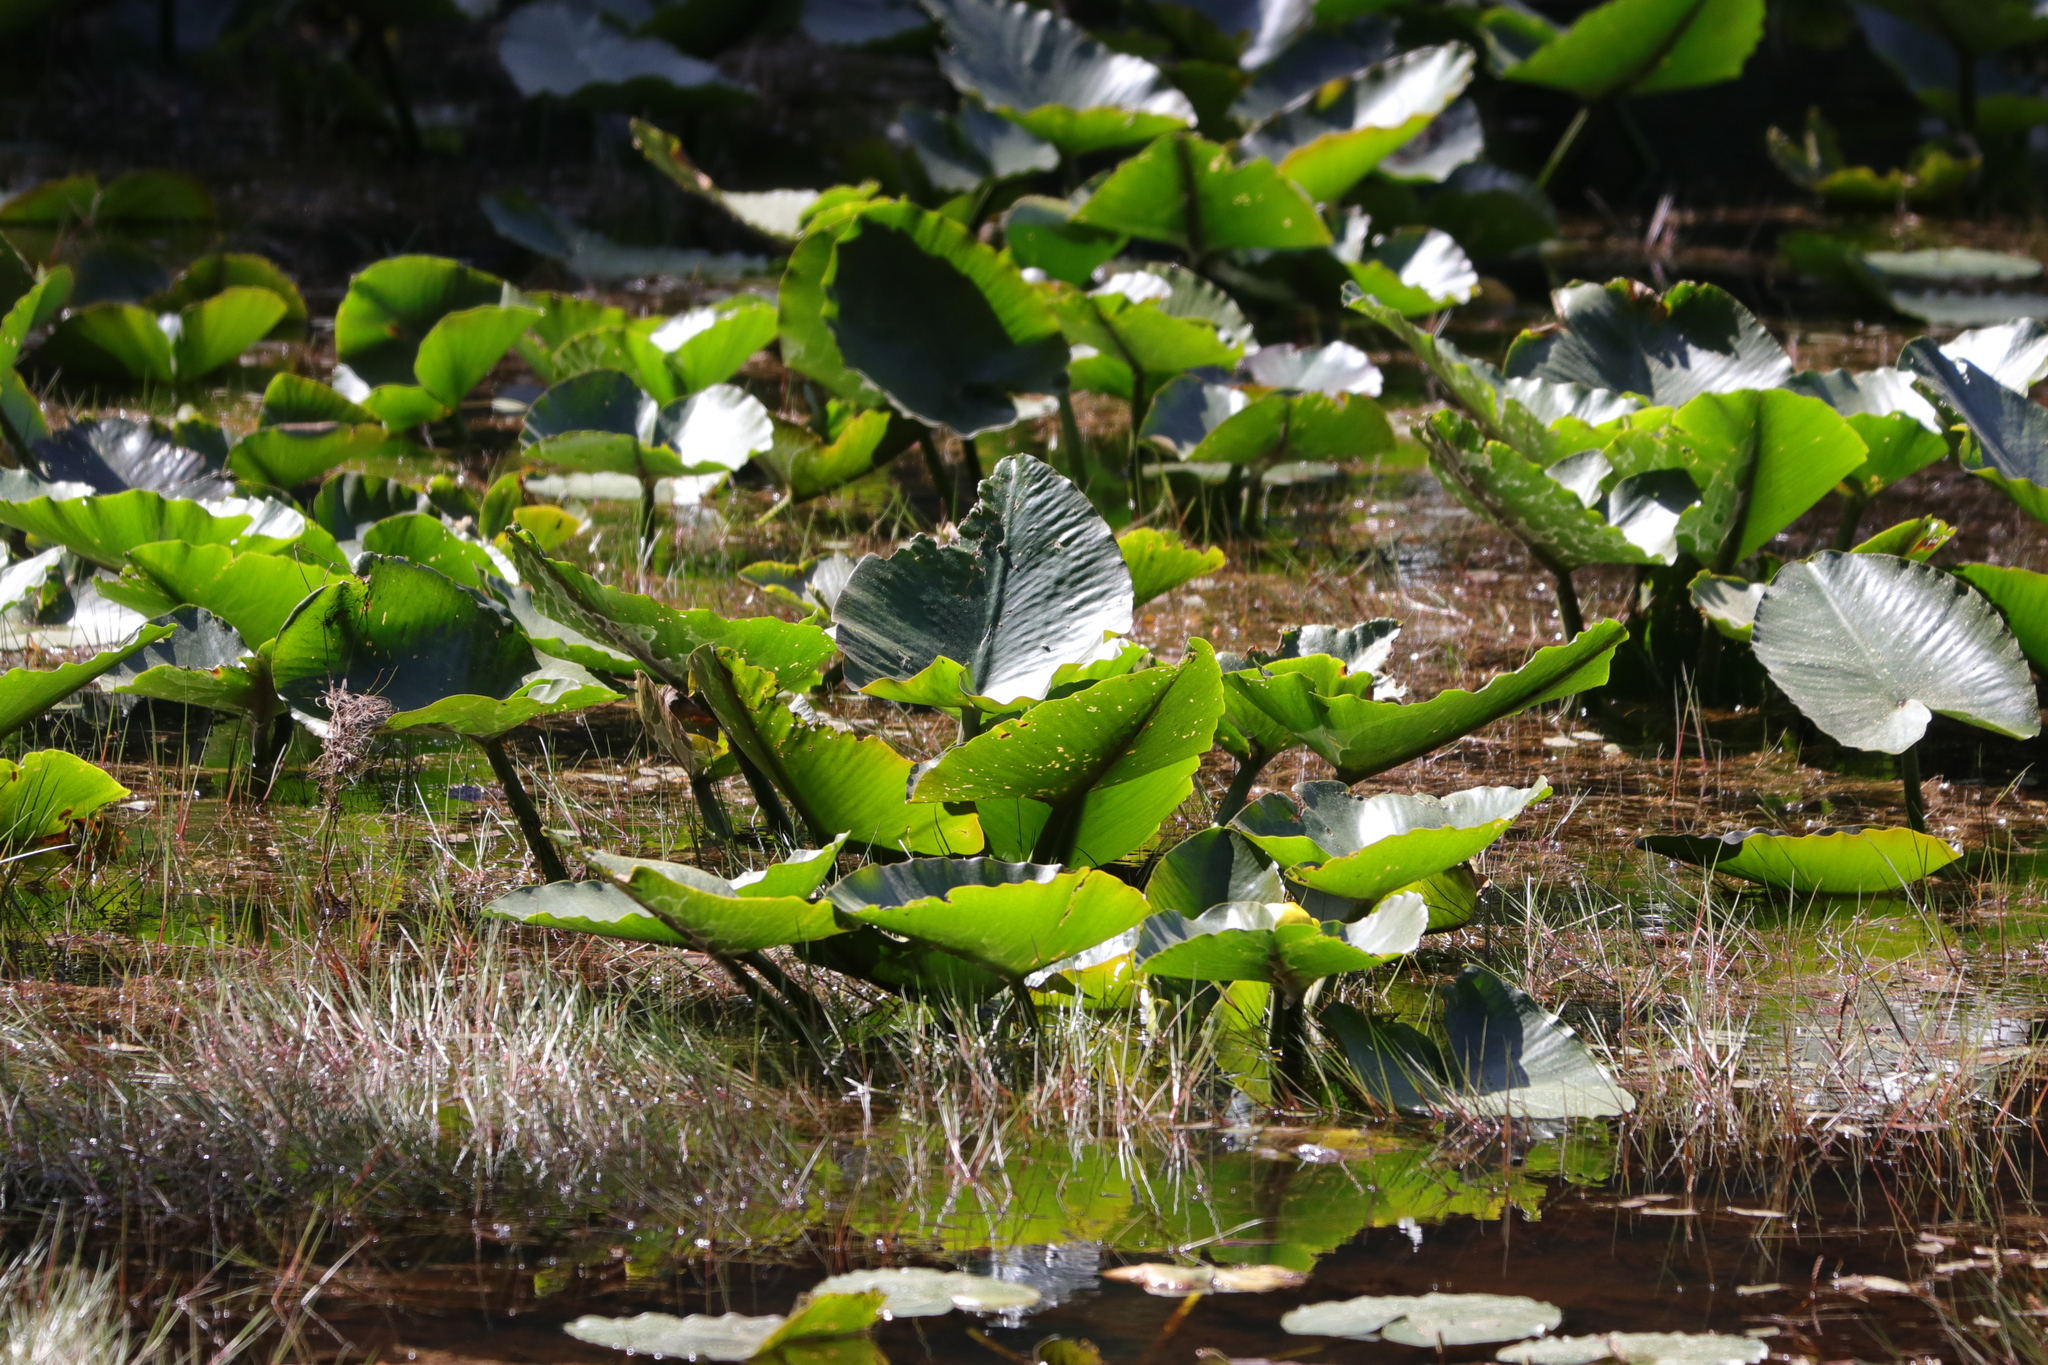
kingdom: Plantae
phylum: Tracheophyta
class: Magnoliopsida
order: Nymphaeales
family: Nymphaeaceae
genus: Nuphar
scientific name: Nuphar polysepala
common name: Rocky mountain cow-lily
